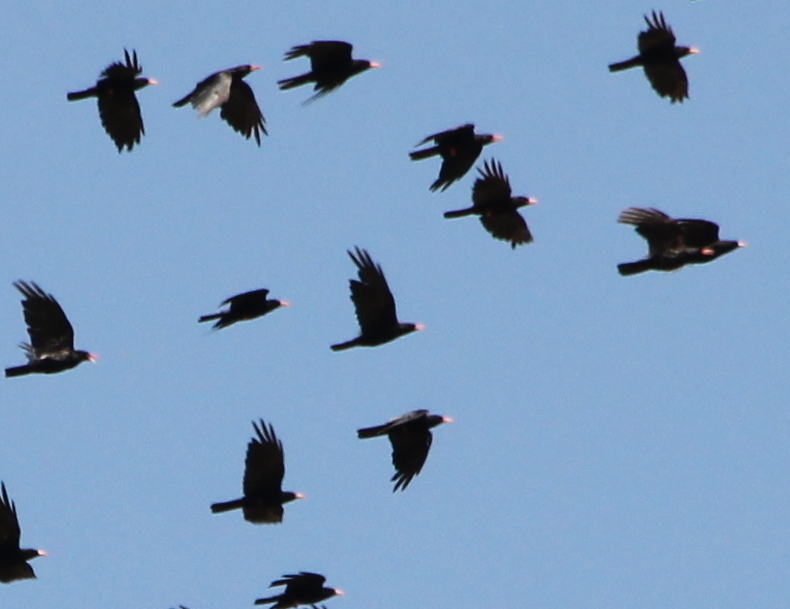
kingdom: Animalia
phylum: Chordata
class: Aves
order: Passeriformes
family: Corvidae
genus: Pyrrhocorax
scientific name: Pyrrhocorax pyrrhocorax
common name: Red-billed chough
